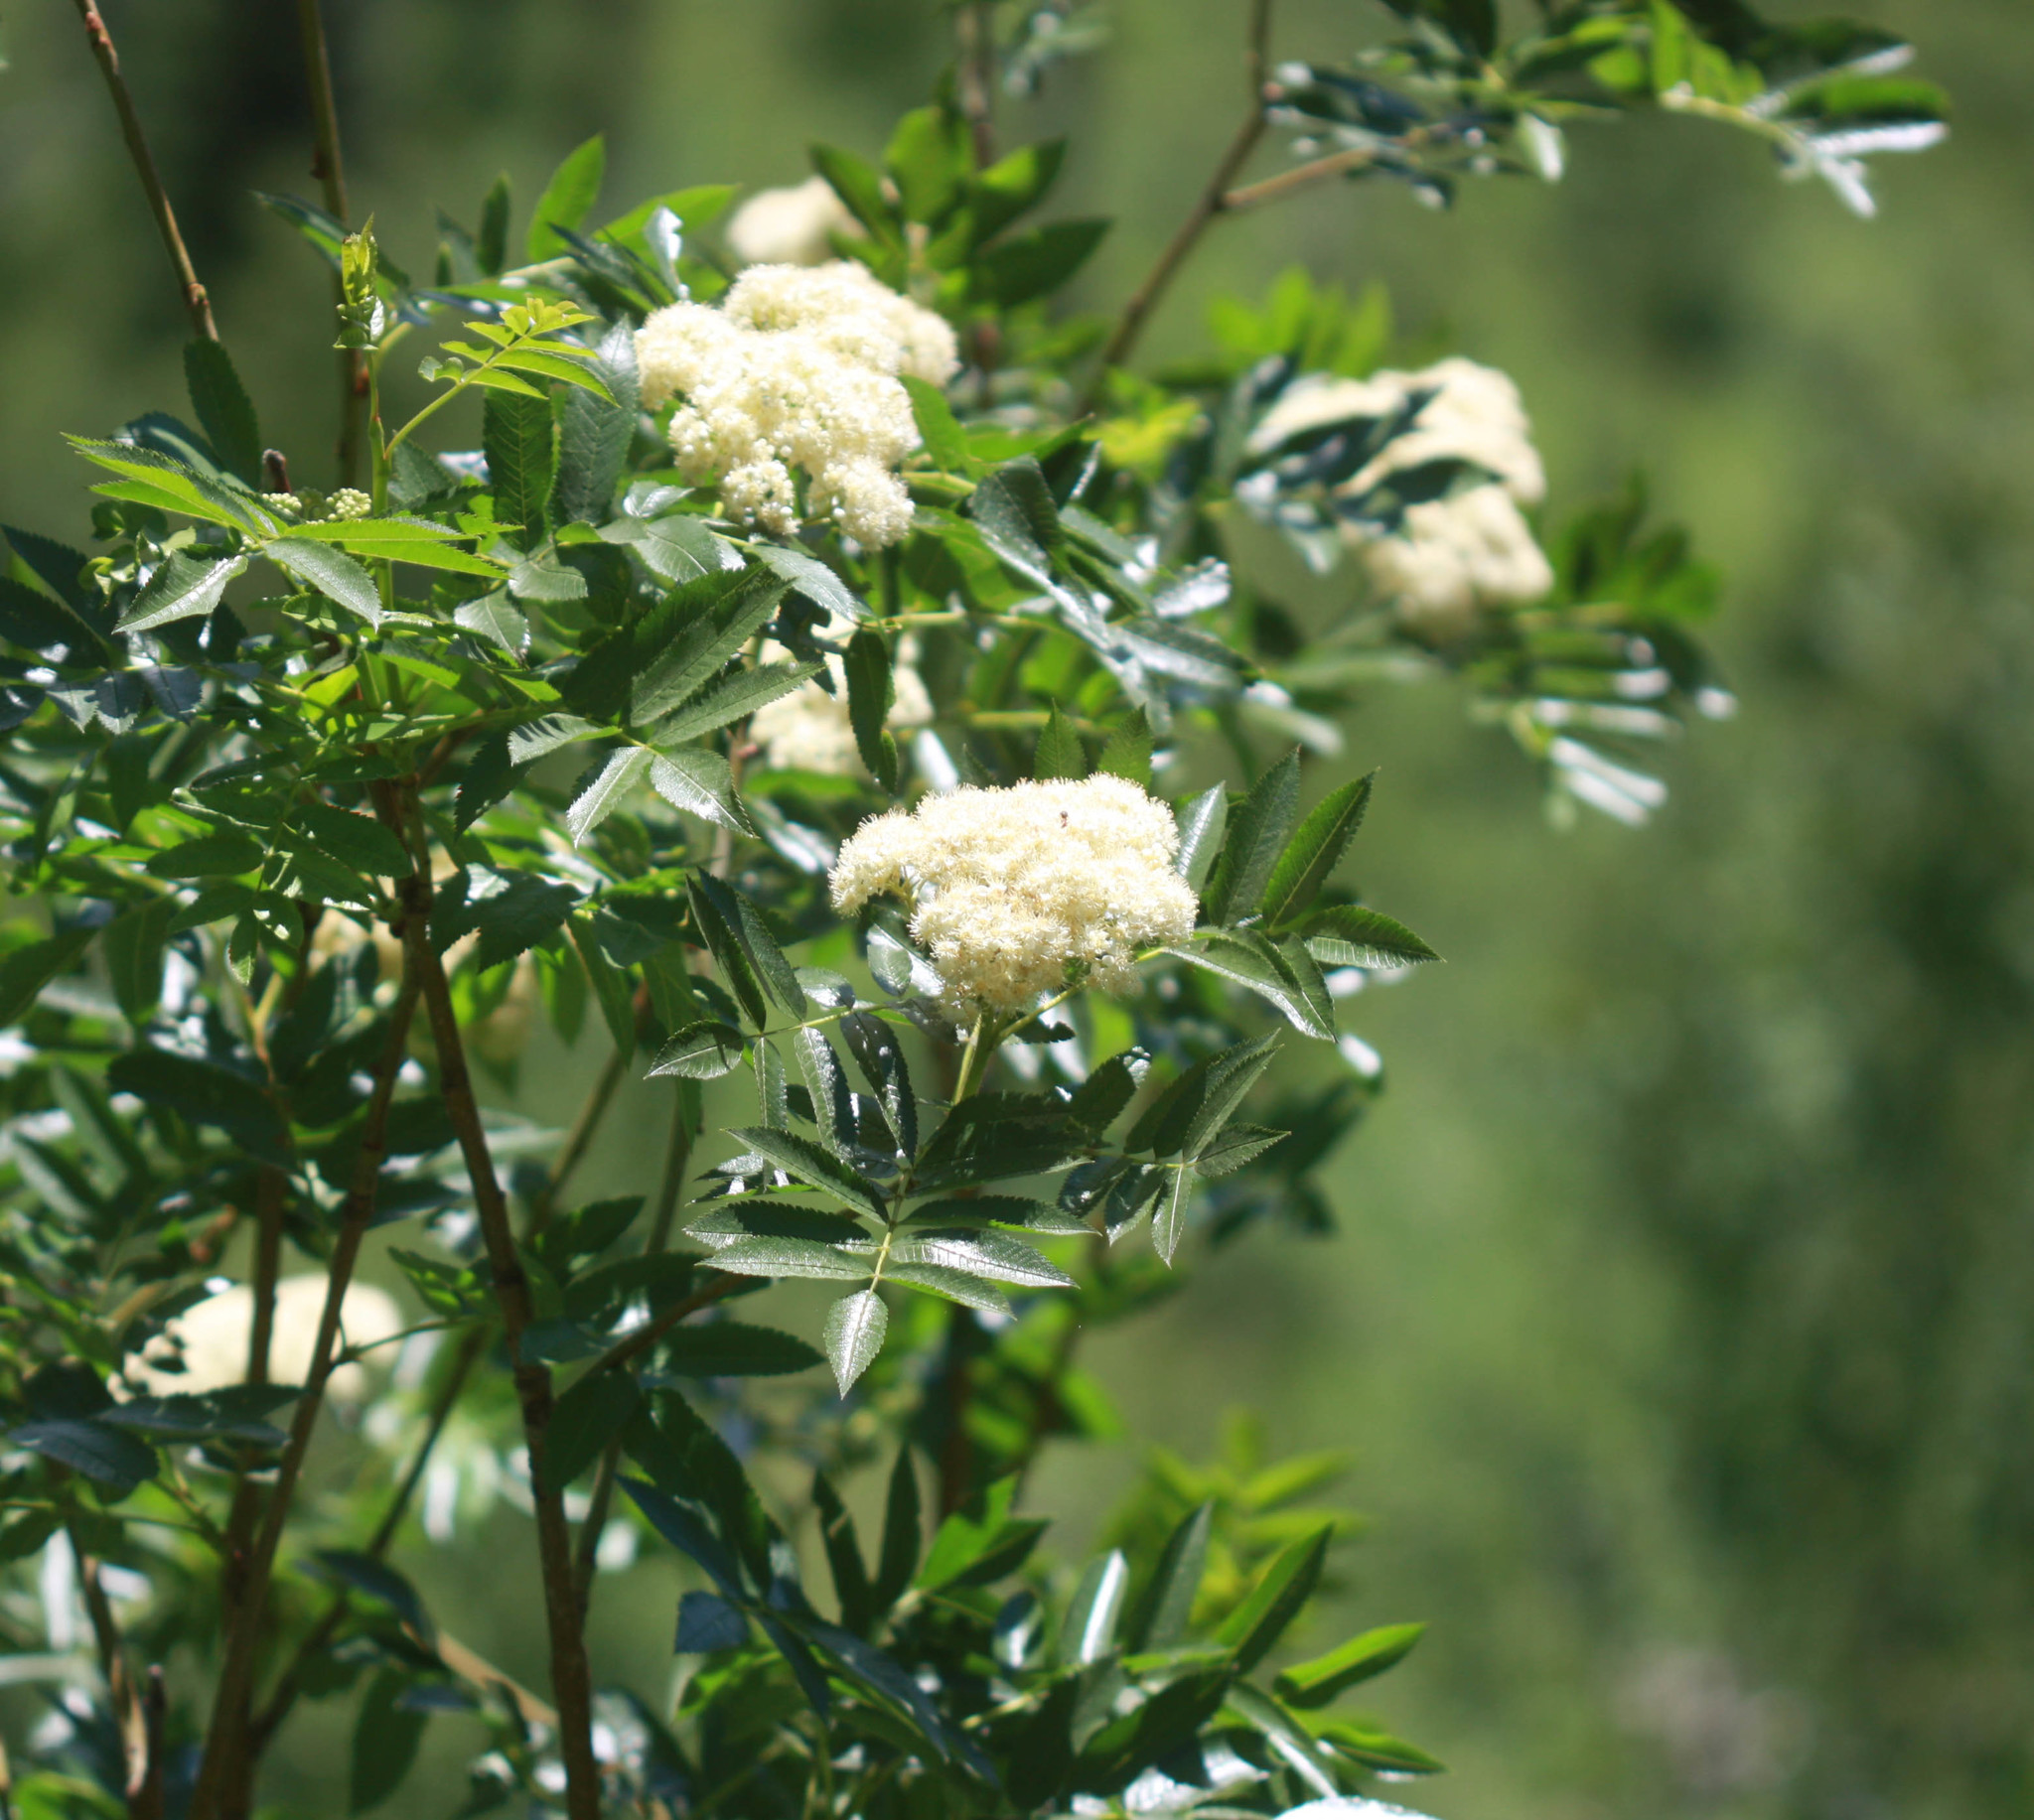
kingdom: Plantae
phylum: Tracheophyta
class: Magnoliopsida
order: Rosales
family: Rosaceae
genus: Sorbus
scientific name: Sorbus scopulina
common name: Greene's mountain-ash
